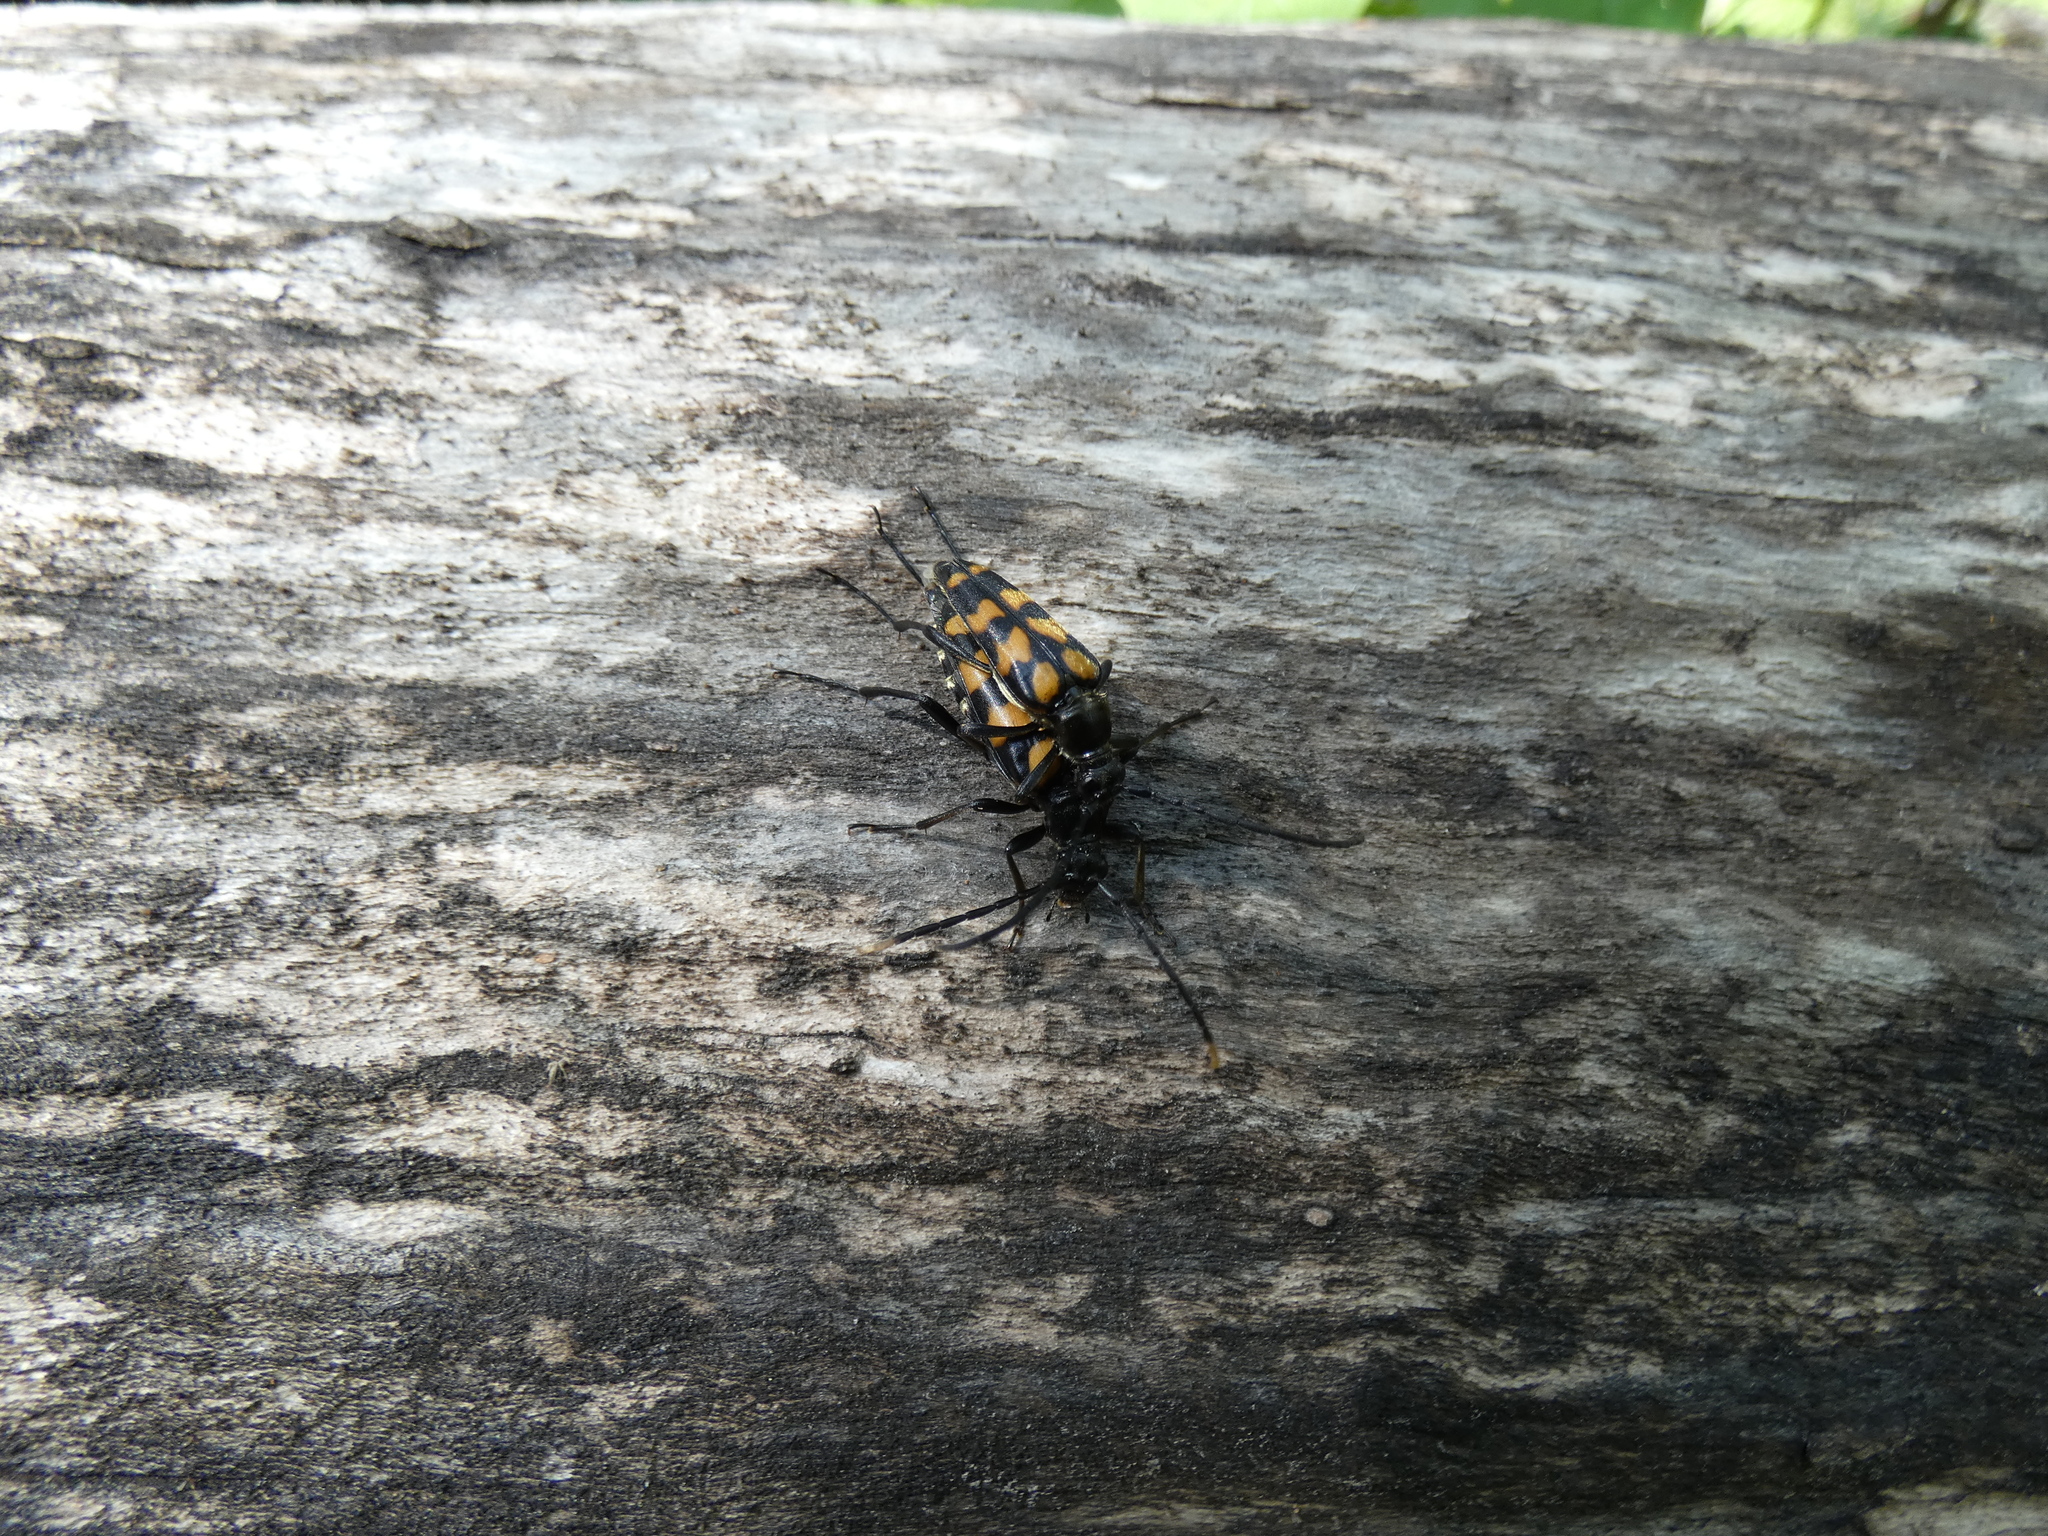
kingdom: Animalia
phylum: Arthropoda
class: Insecta
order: Coleoptera
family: Cerambycidae
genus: Leptura
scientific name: Leptura quadrifasciata
